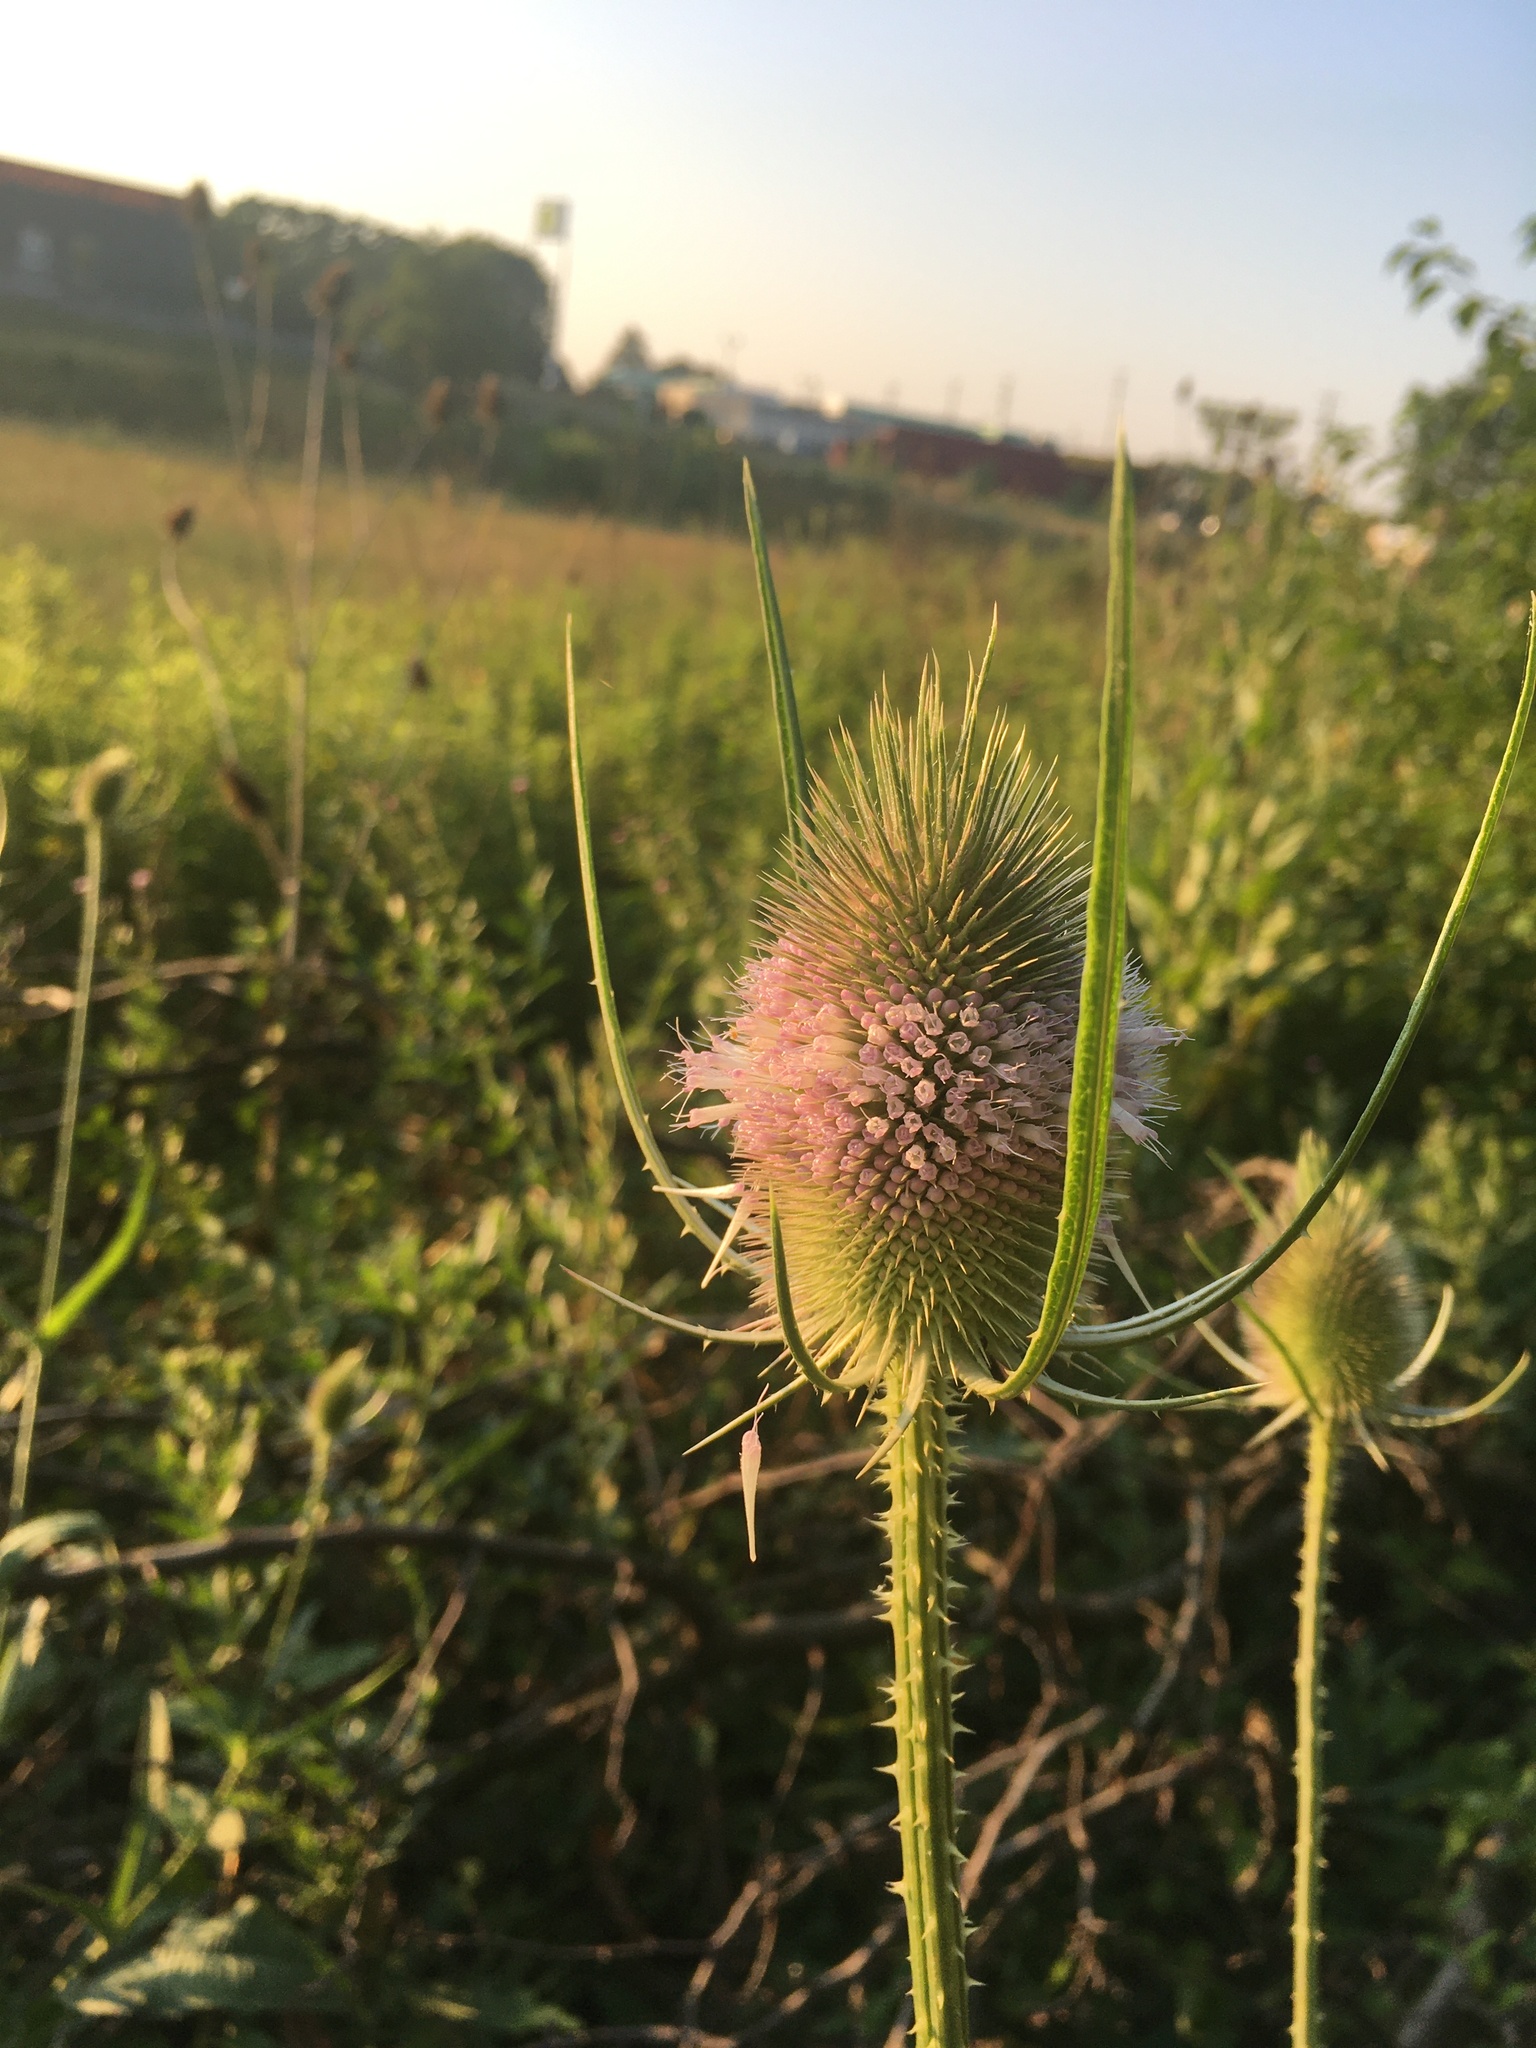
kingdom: Plantae
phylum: Tracheophyta
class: Magnoliopsida
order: Dipsacales
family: Caprifoliaceae
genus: Dipsacus
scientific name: Dipsacus fullonum
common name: Teasel
